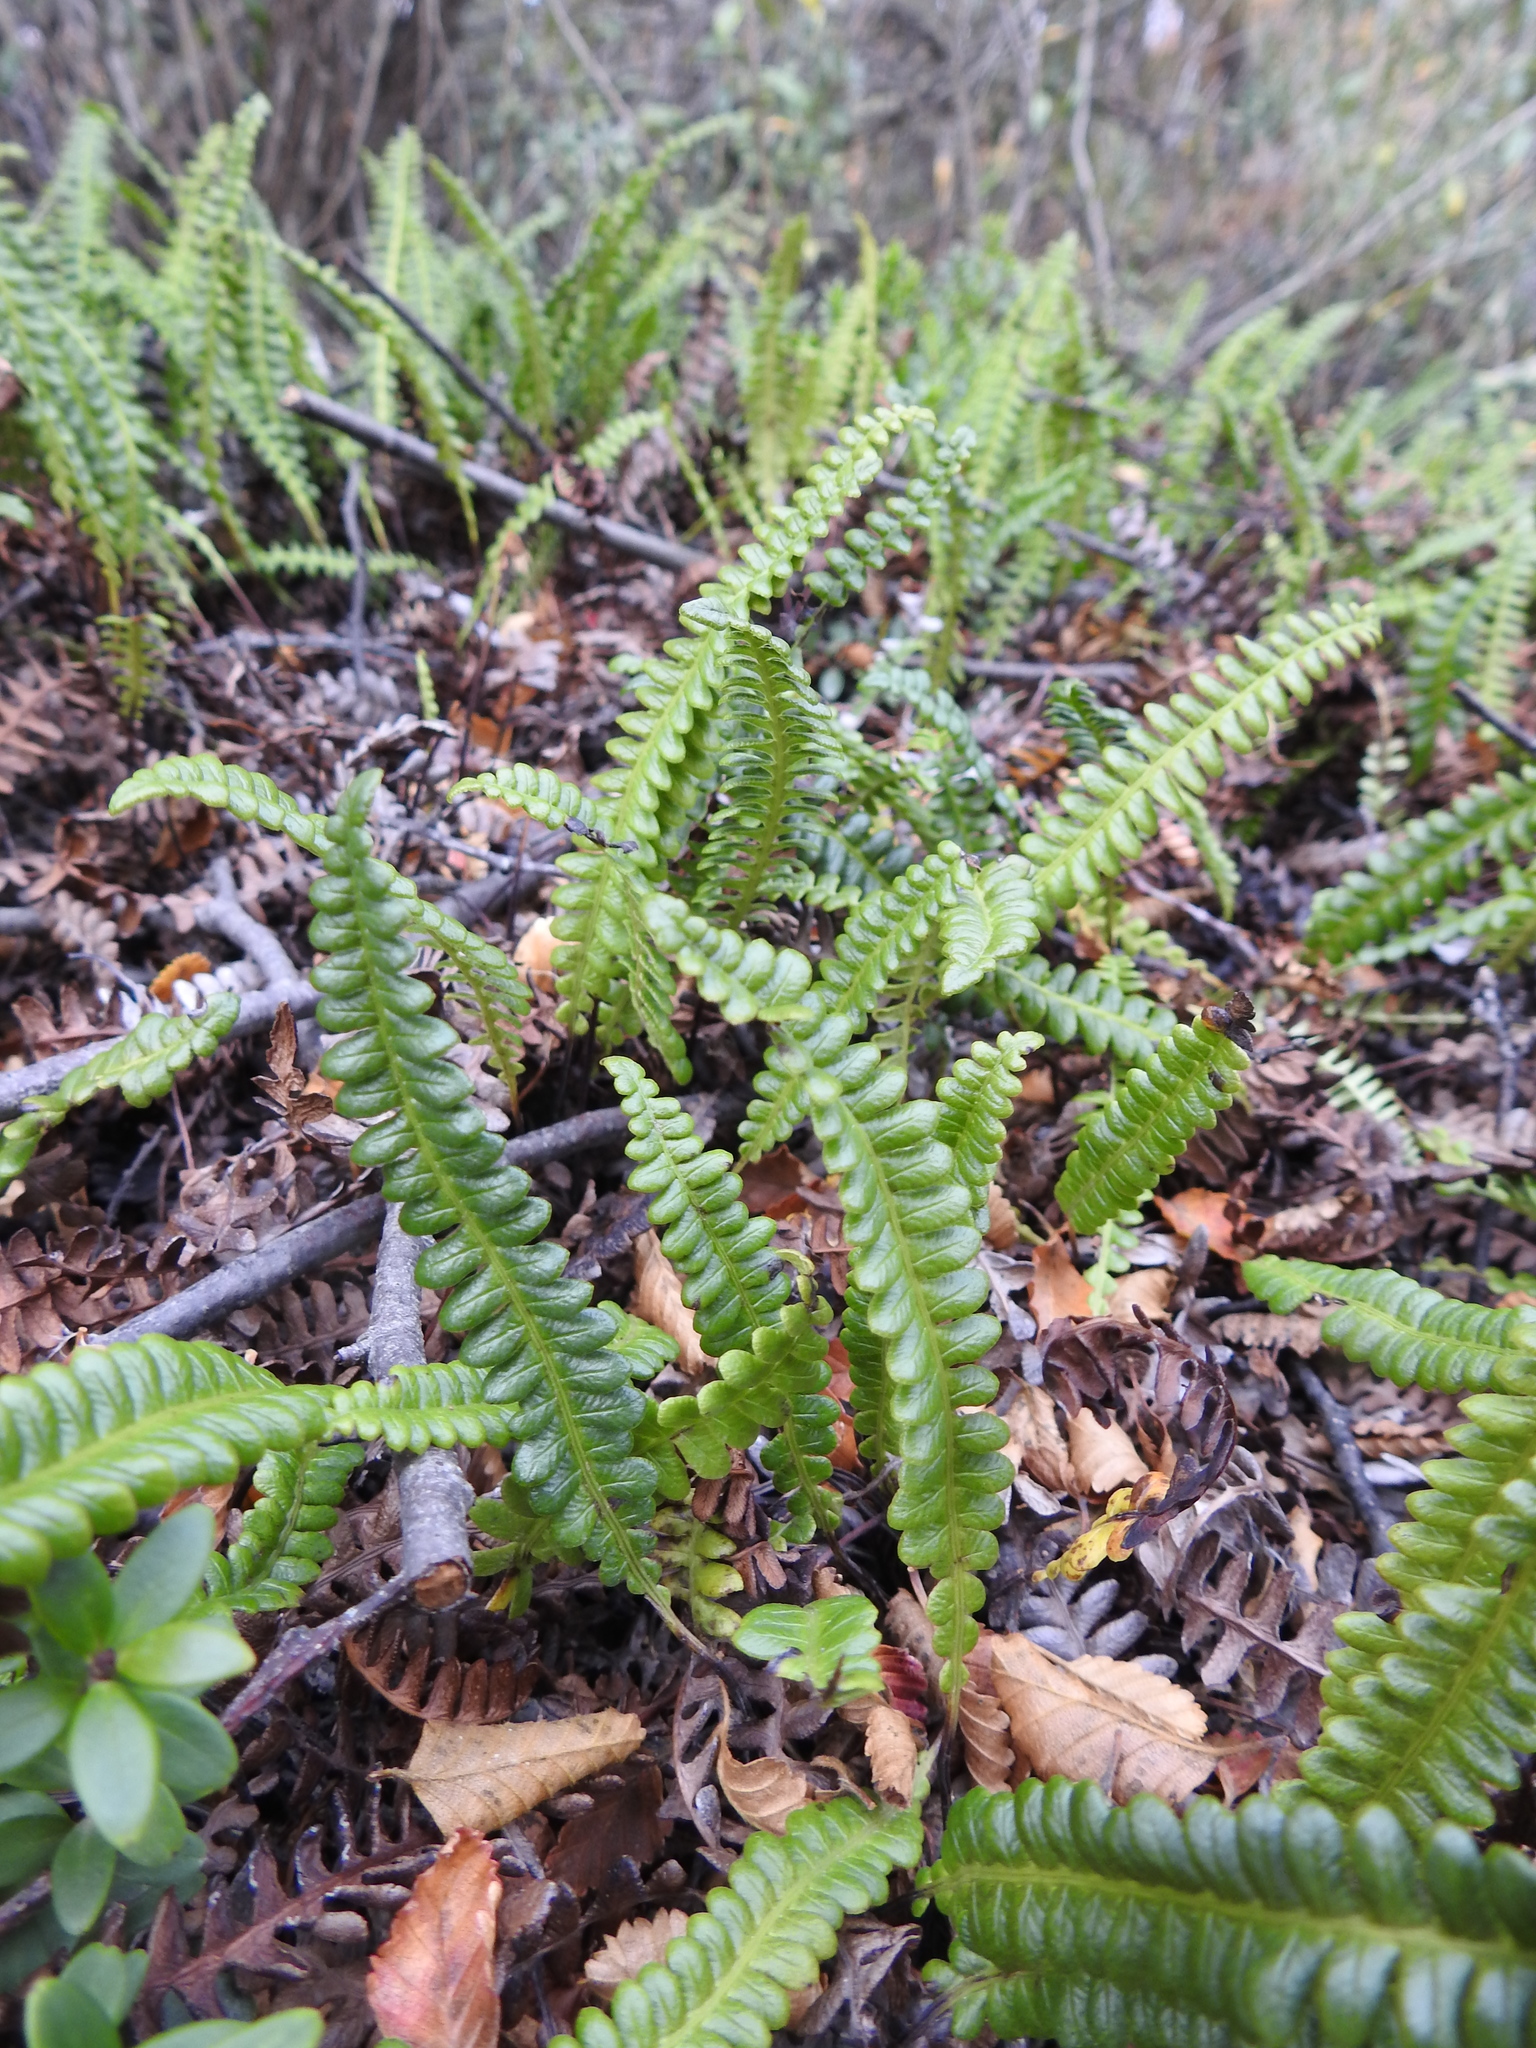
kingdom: Plantae
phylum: Tracheophyta
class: Polypodiopsida
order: Polypodiales
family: Blechnaceae
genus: Austroblechnum
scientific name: Austroblechnum penna-marina
